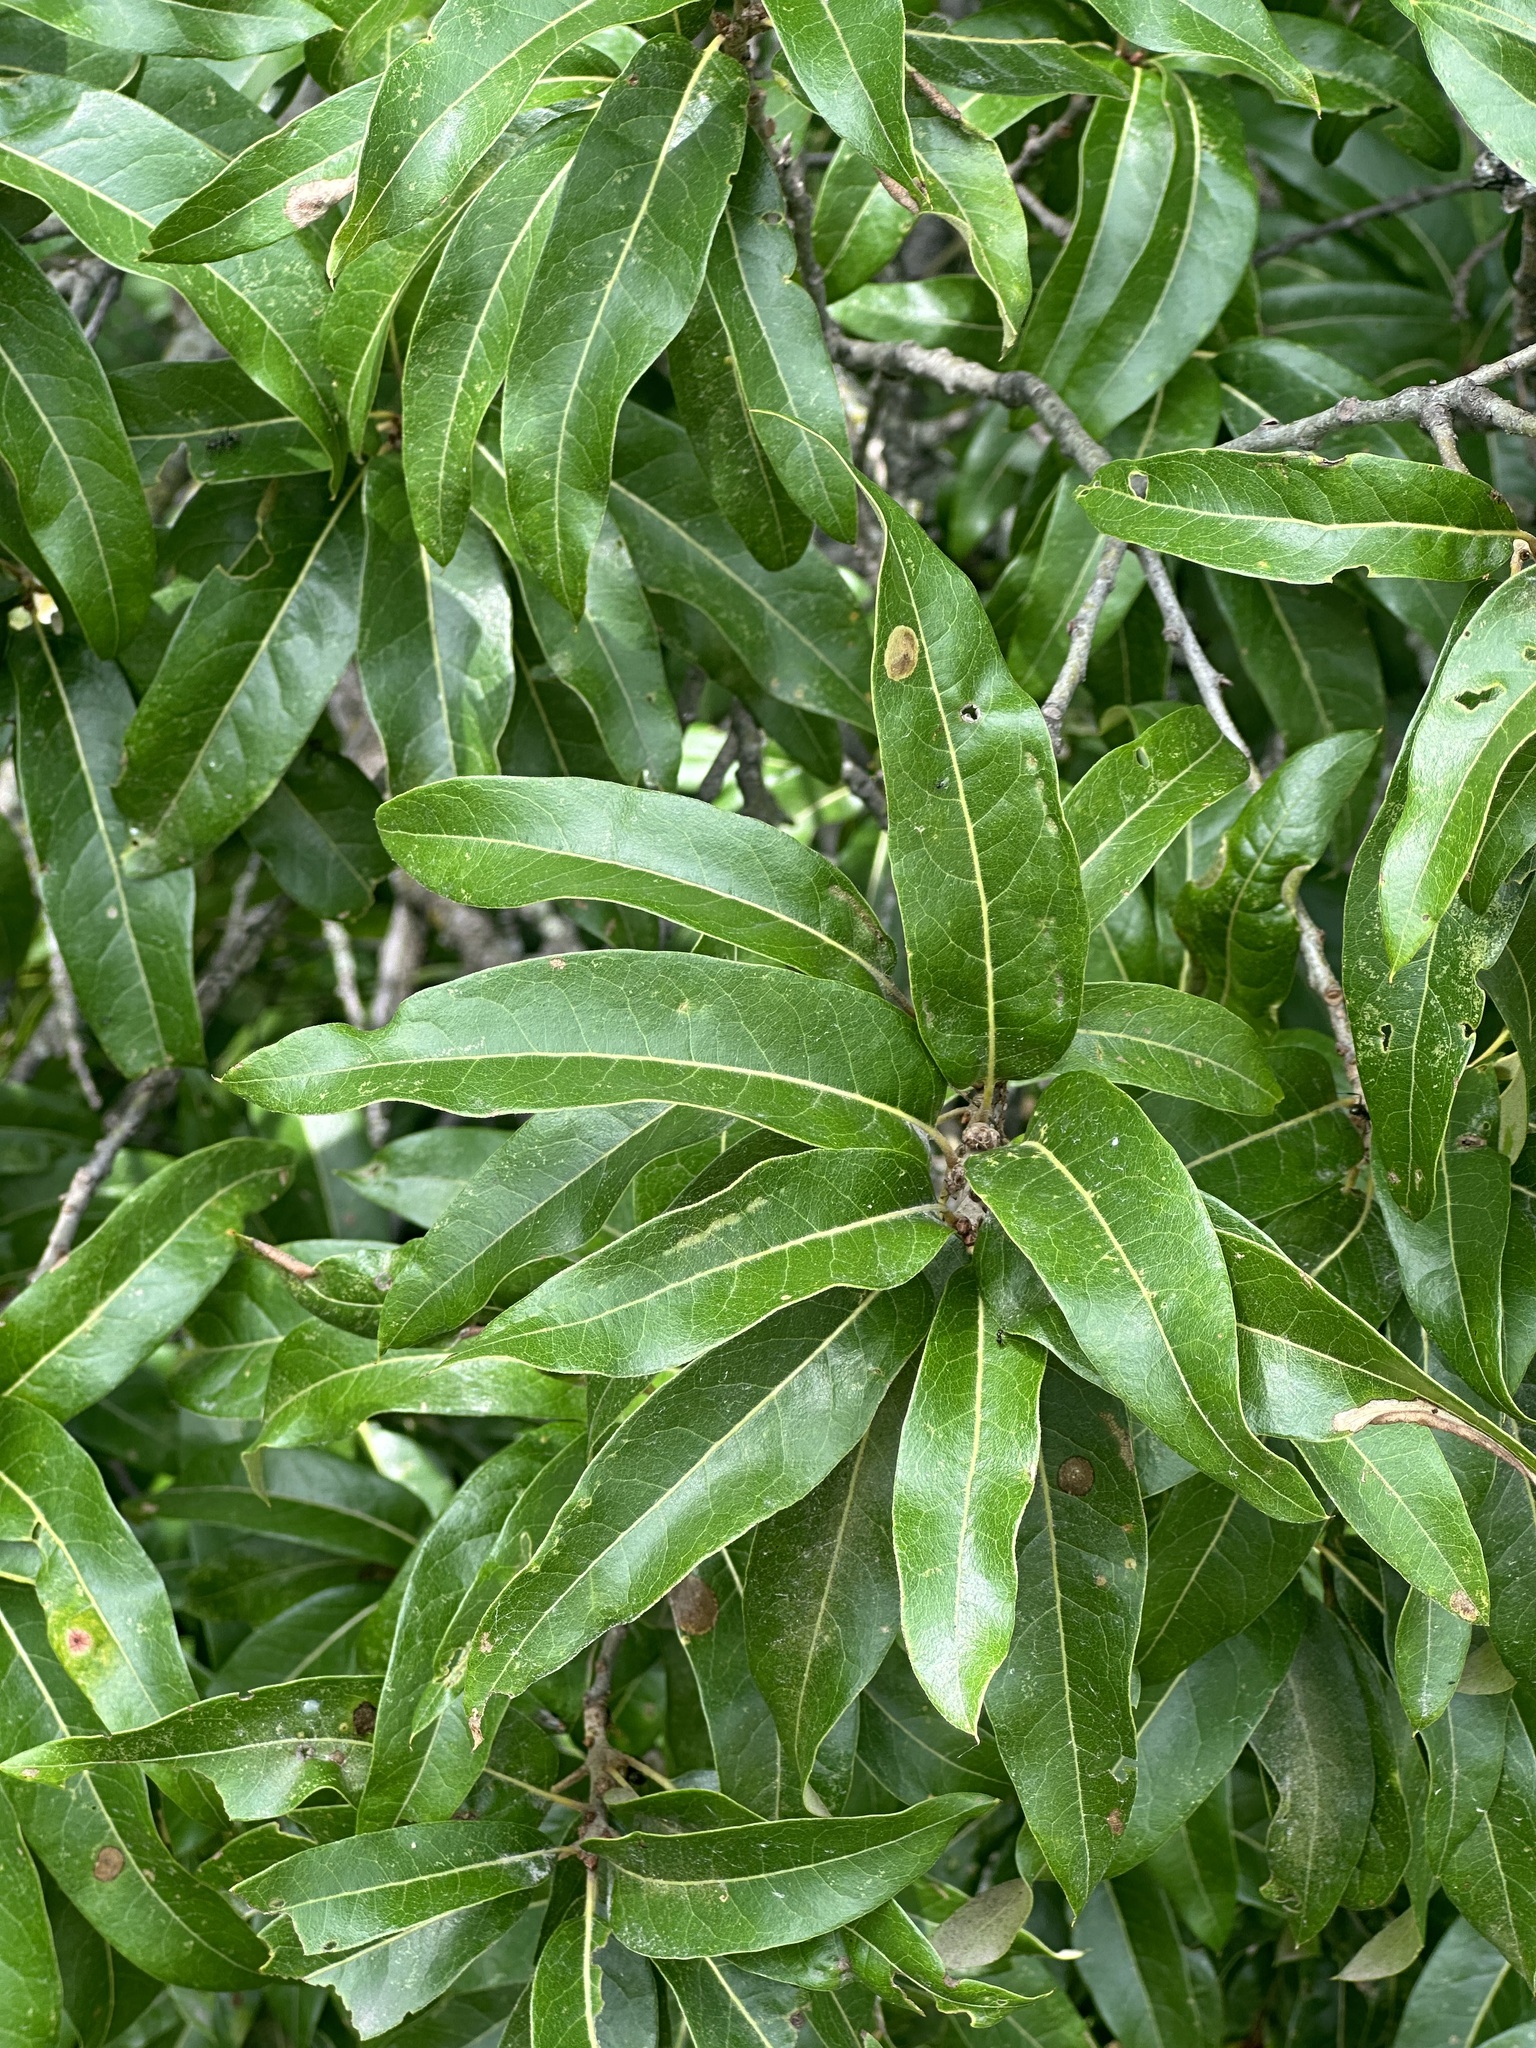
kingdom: Plantae
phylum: Tracheophyta
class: Magnoliopsida
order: Fagales
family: Fagaceae
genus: Quercus
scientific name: Quercus imbricaria
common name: Shingle oak
